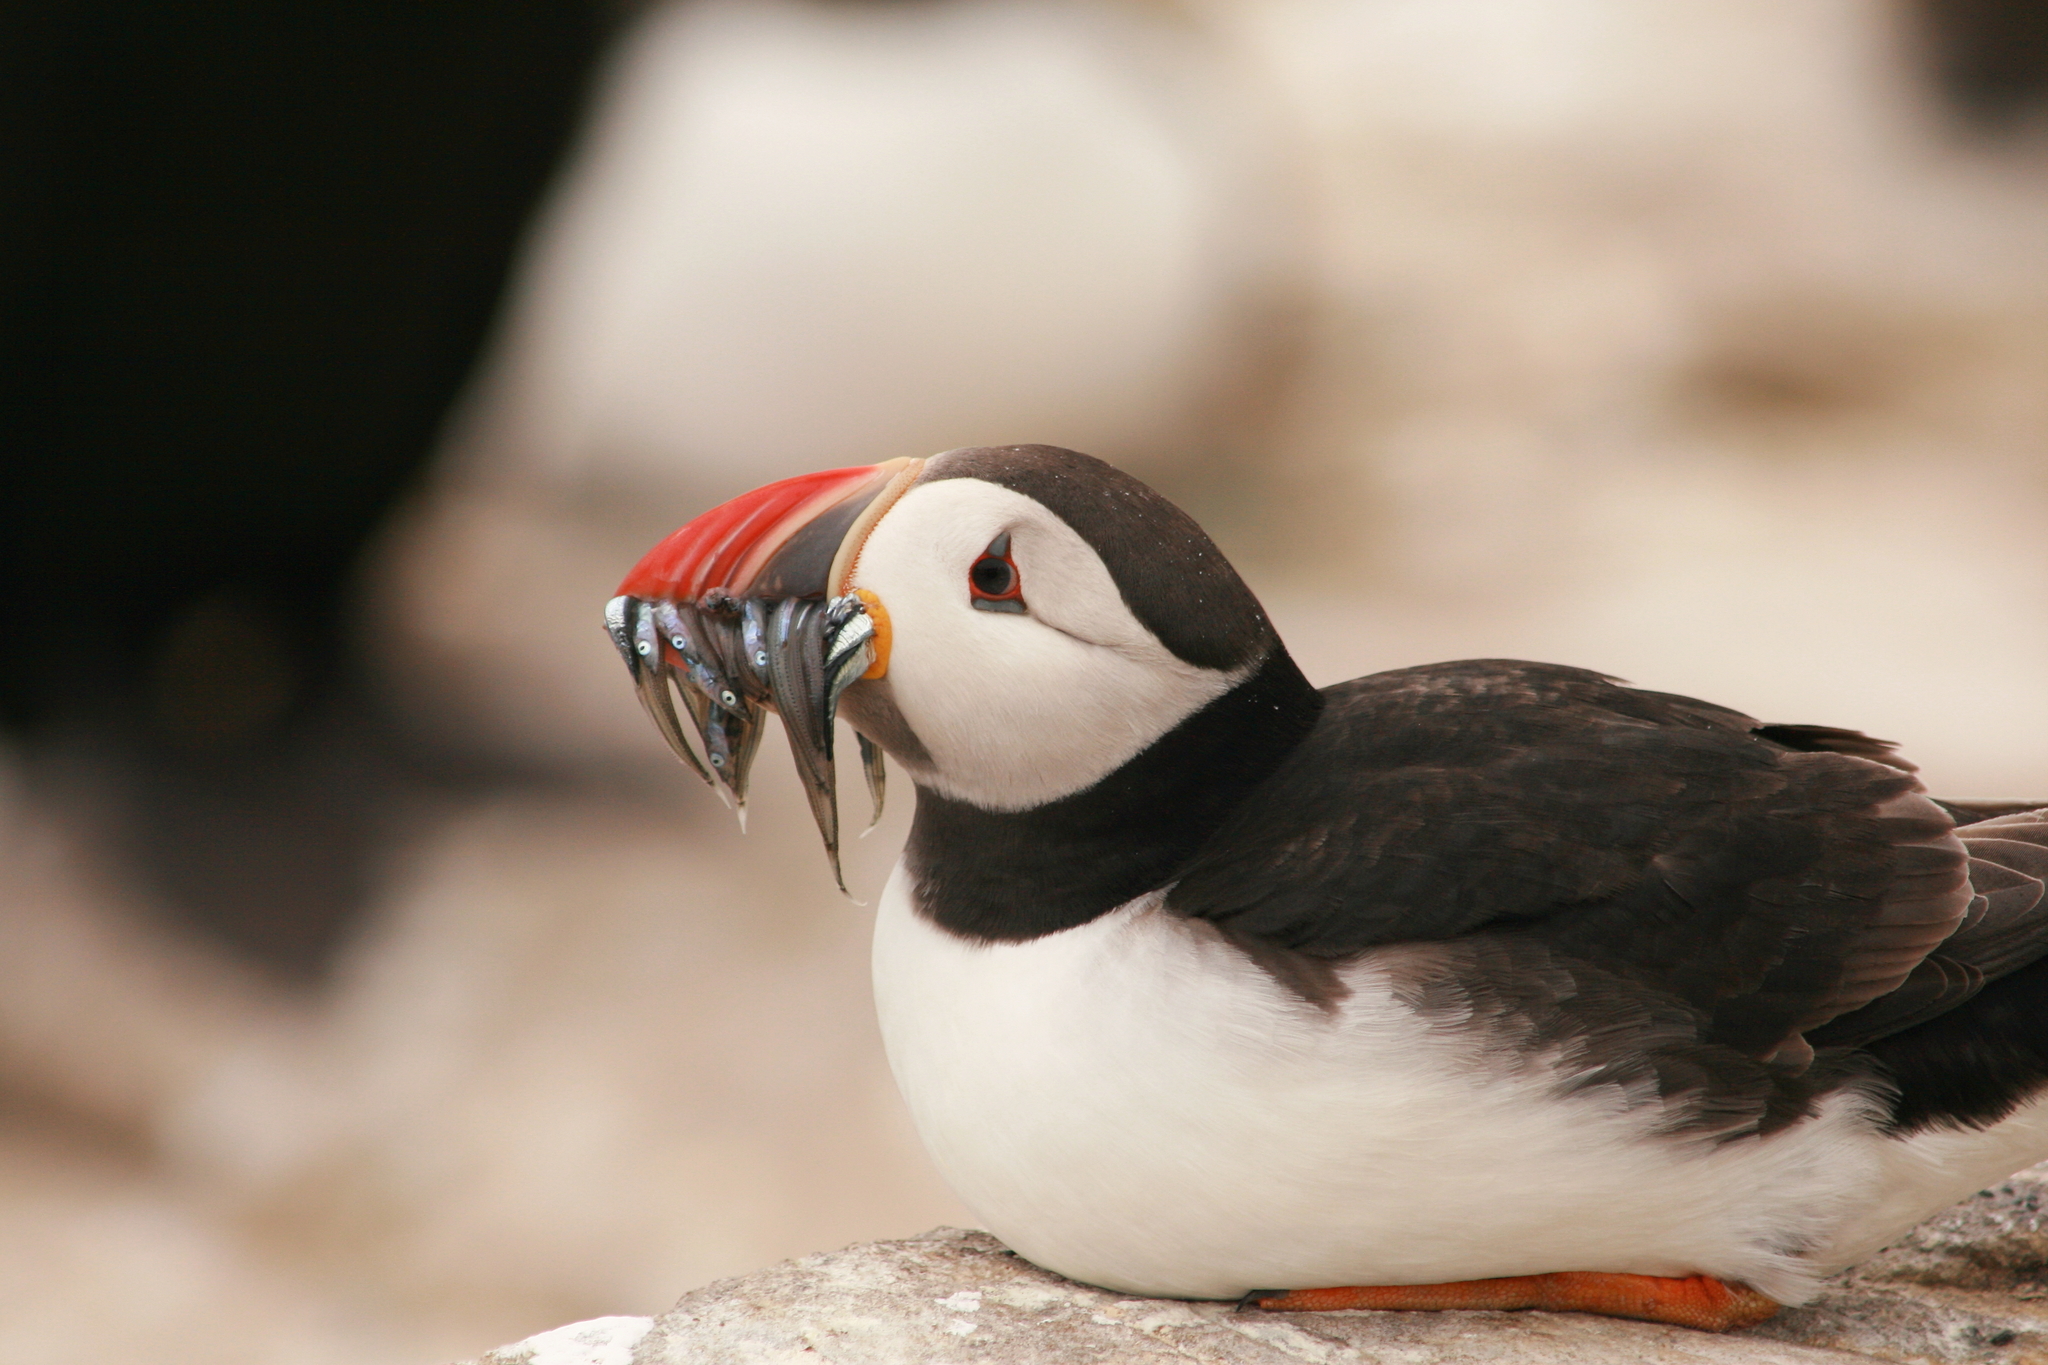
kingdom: Animalia
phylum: Chordata
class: Aves
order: Charadriiformes
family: Alcidae
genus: Fratercula
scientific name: Fratercula arctica
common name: Atlantic puffin
